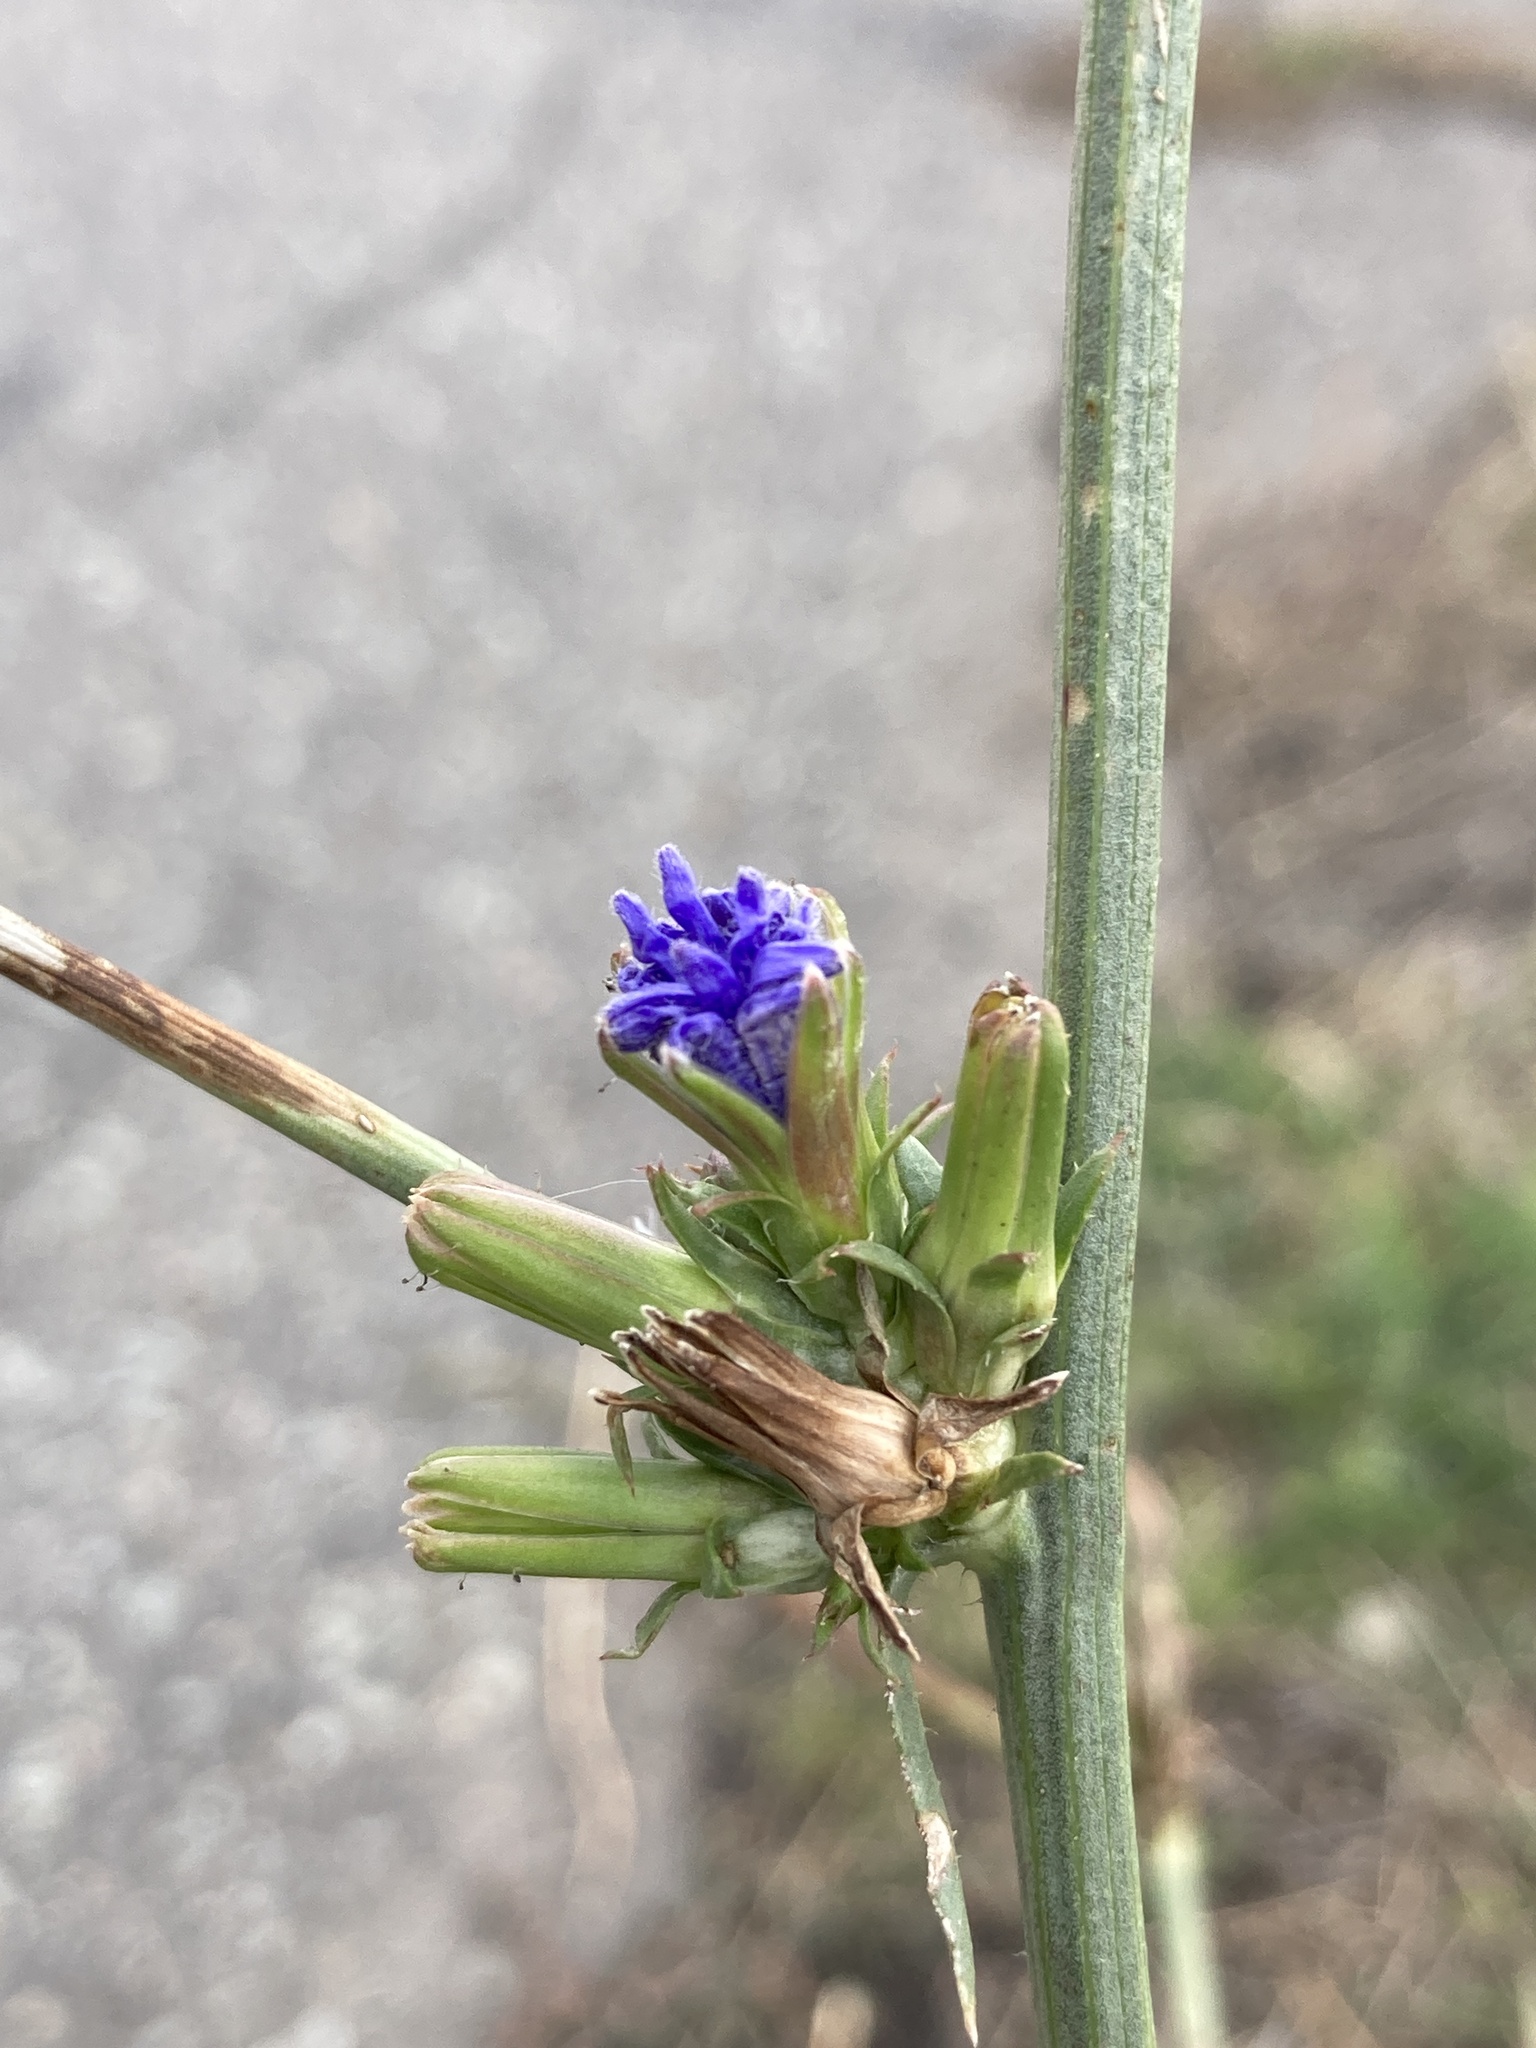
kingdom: Plantae
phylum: Tracheophyta
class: Magnoliopsida
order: Asterales
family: Asteraceae
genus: Cichorium
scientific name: Cichorium intybus
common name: Chicory
